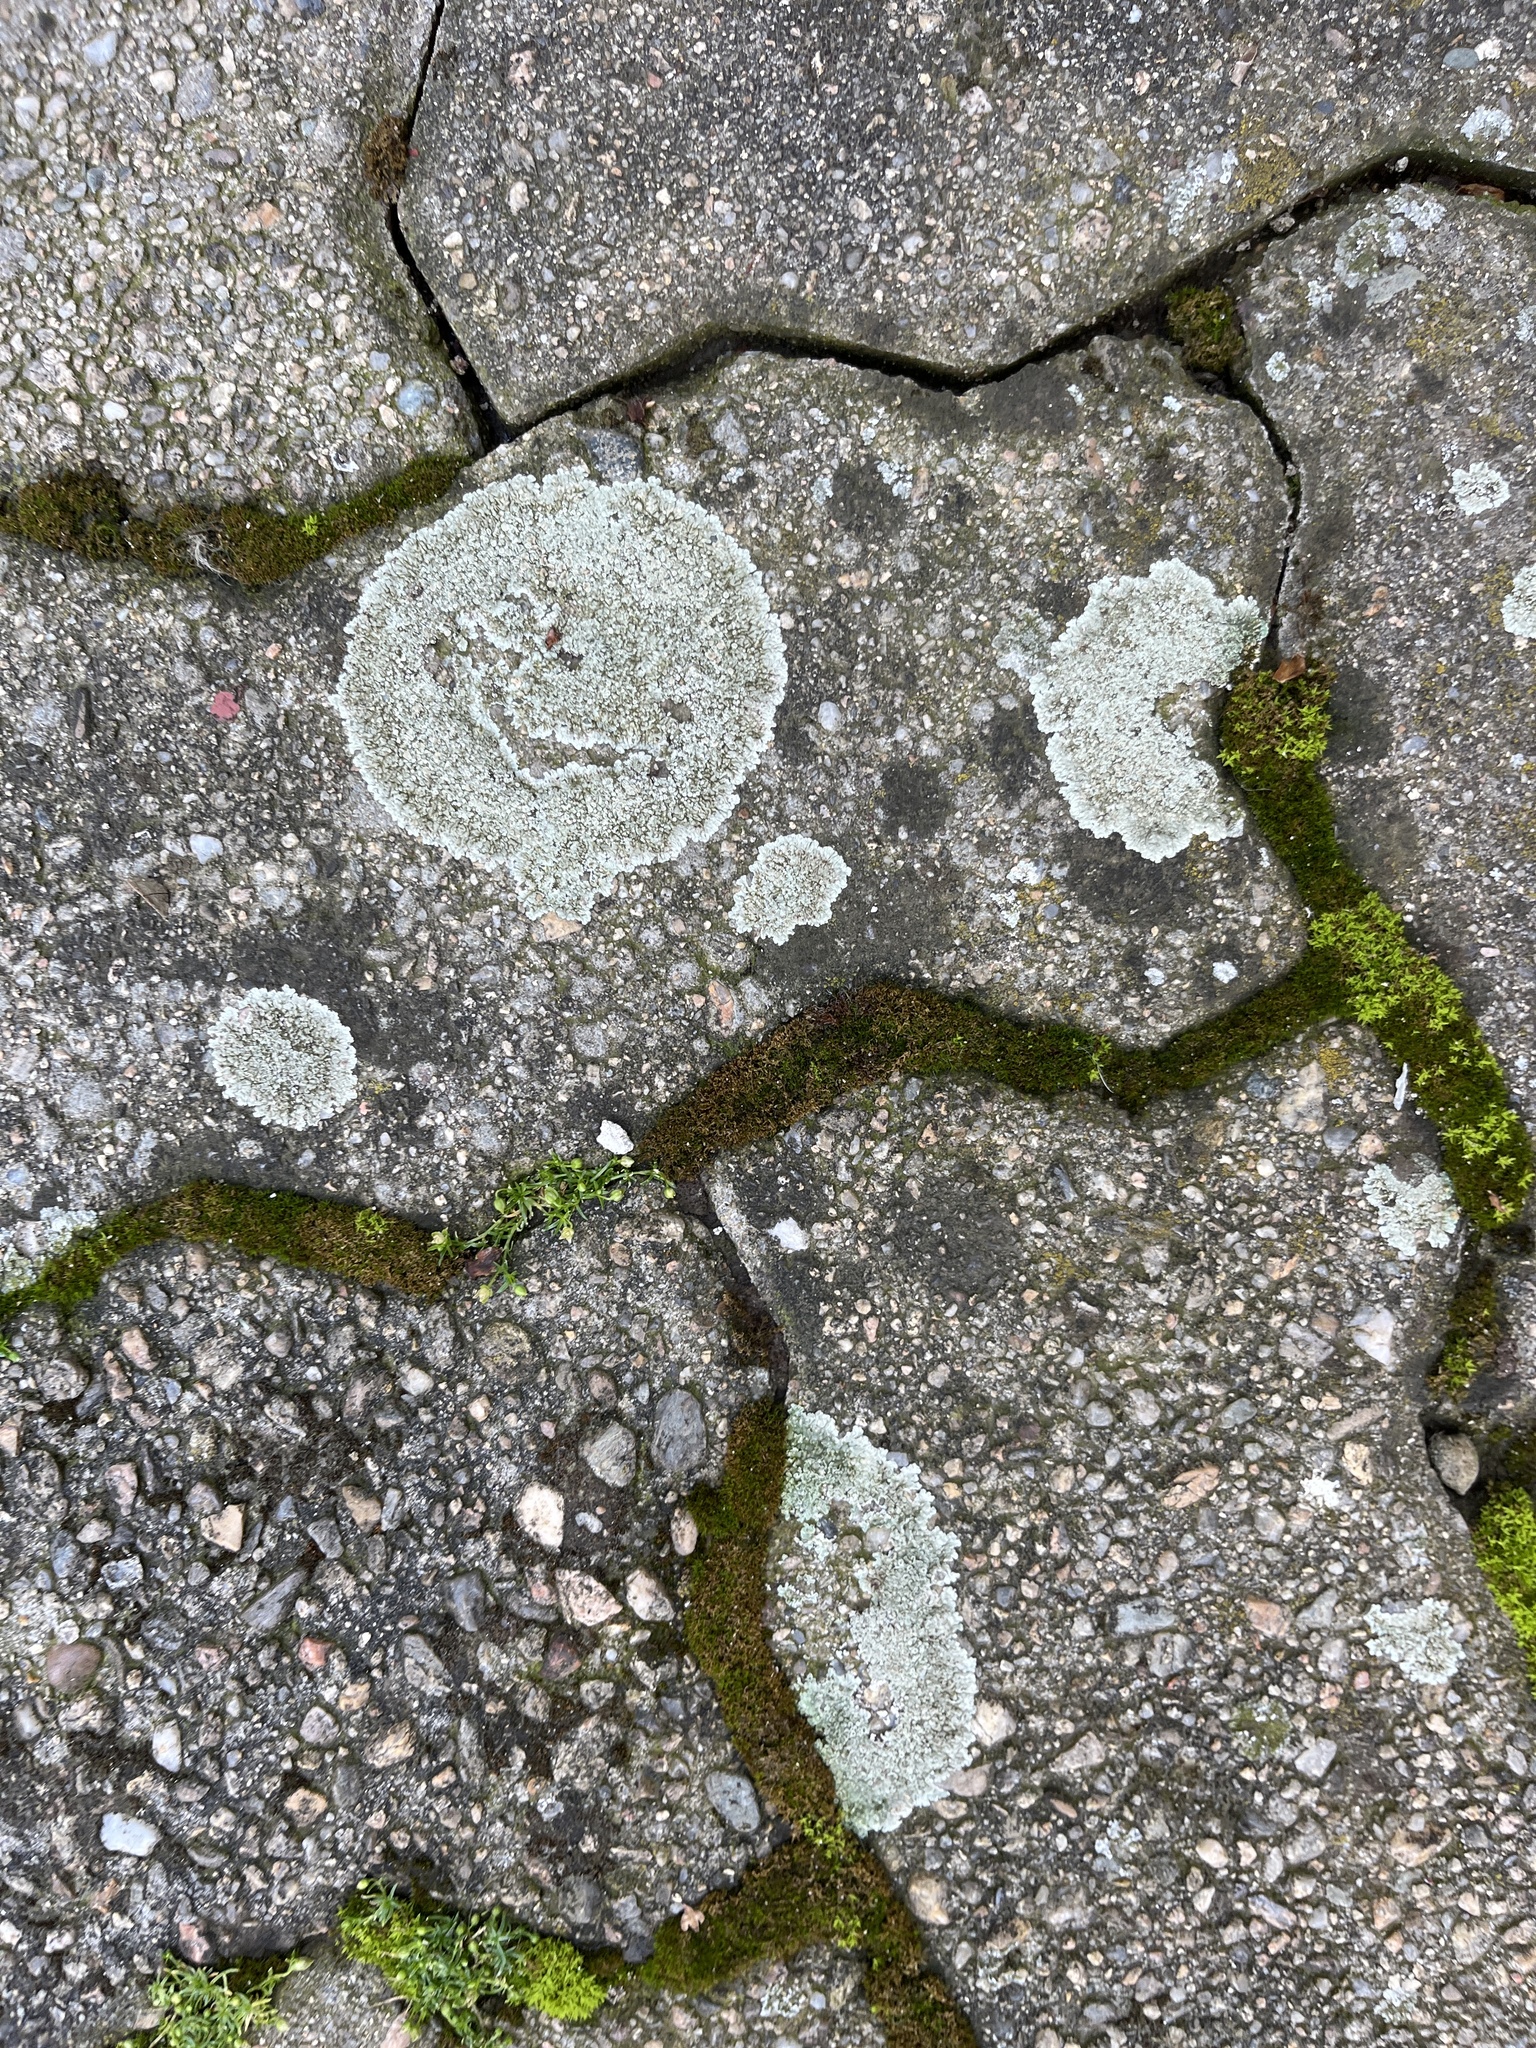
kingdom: Fungi
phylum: Ascomycota
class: Lecanoromycetes
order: Lecanorales
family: Lecanoraceae
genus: Protoparmeliopsis
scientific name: Protoparmeliopsis muralis
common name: Stonewall rim lichen
